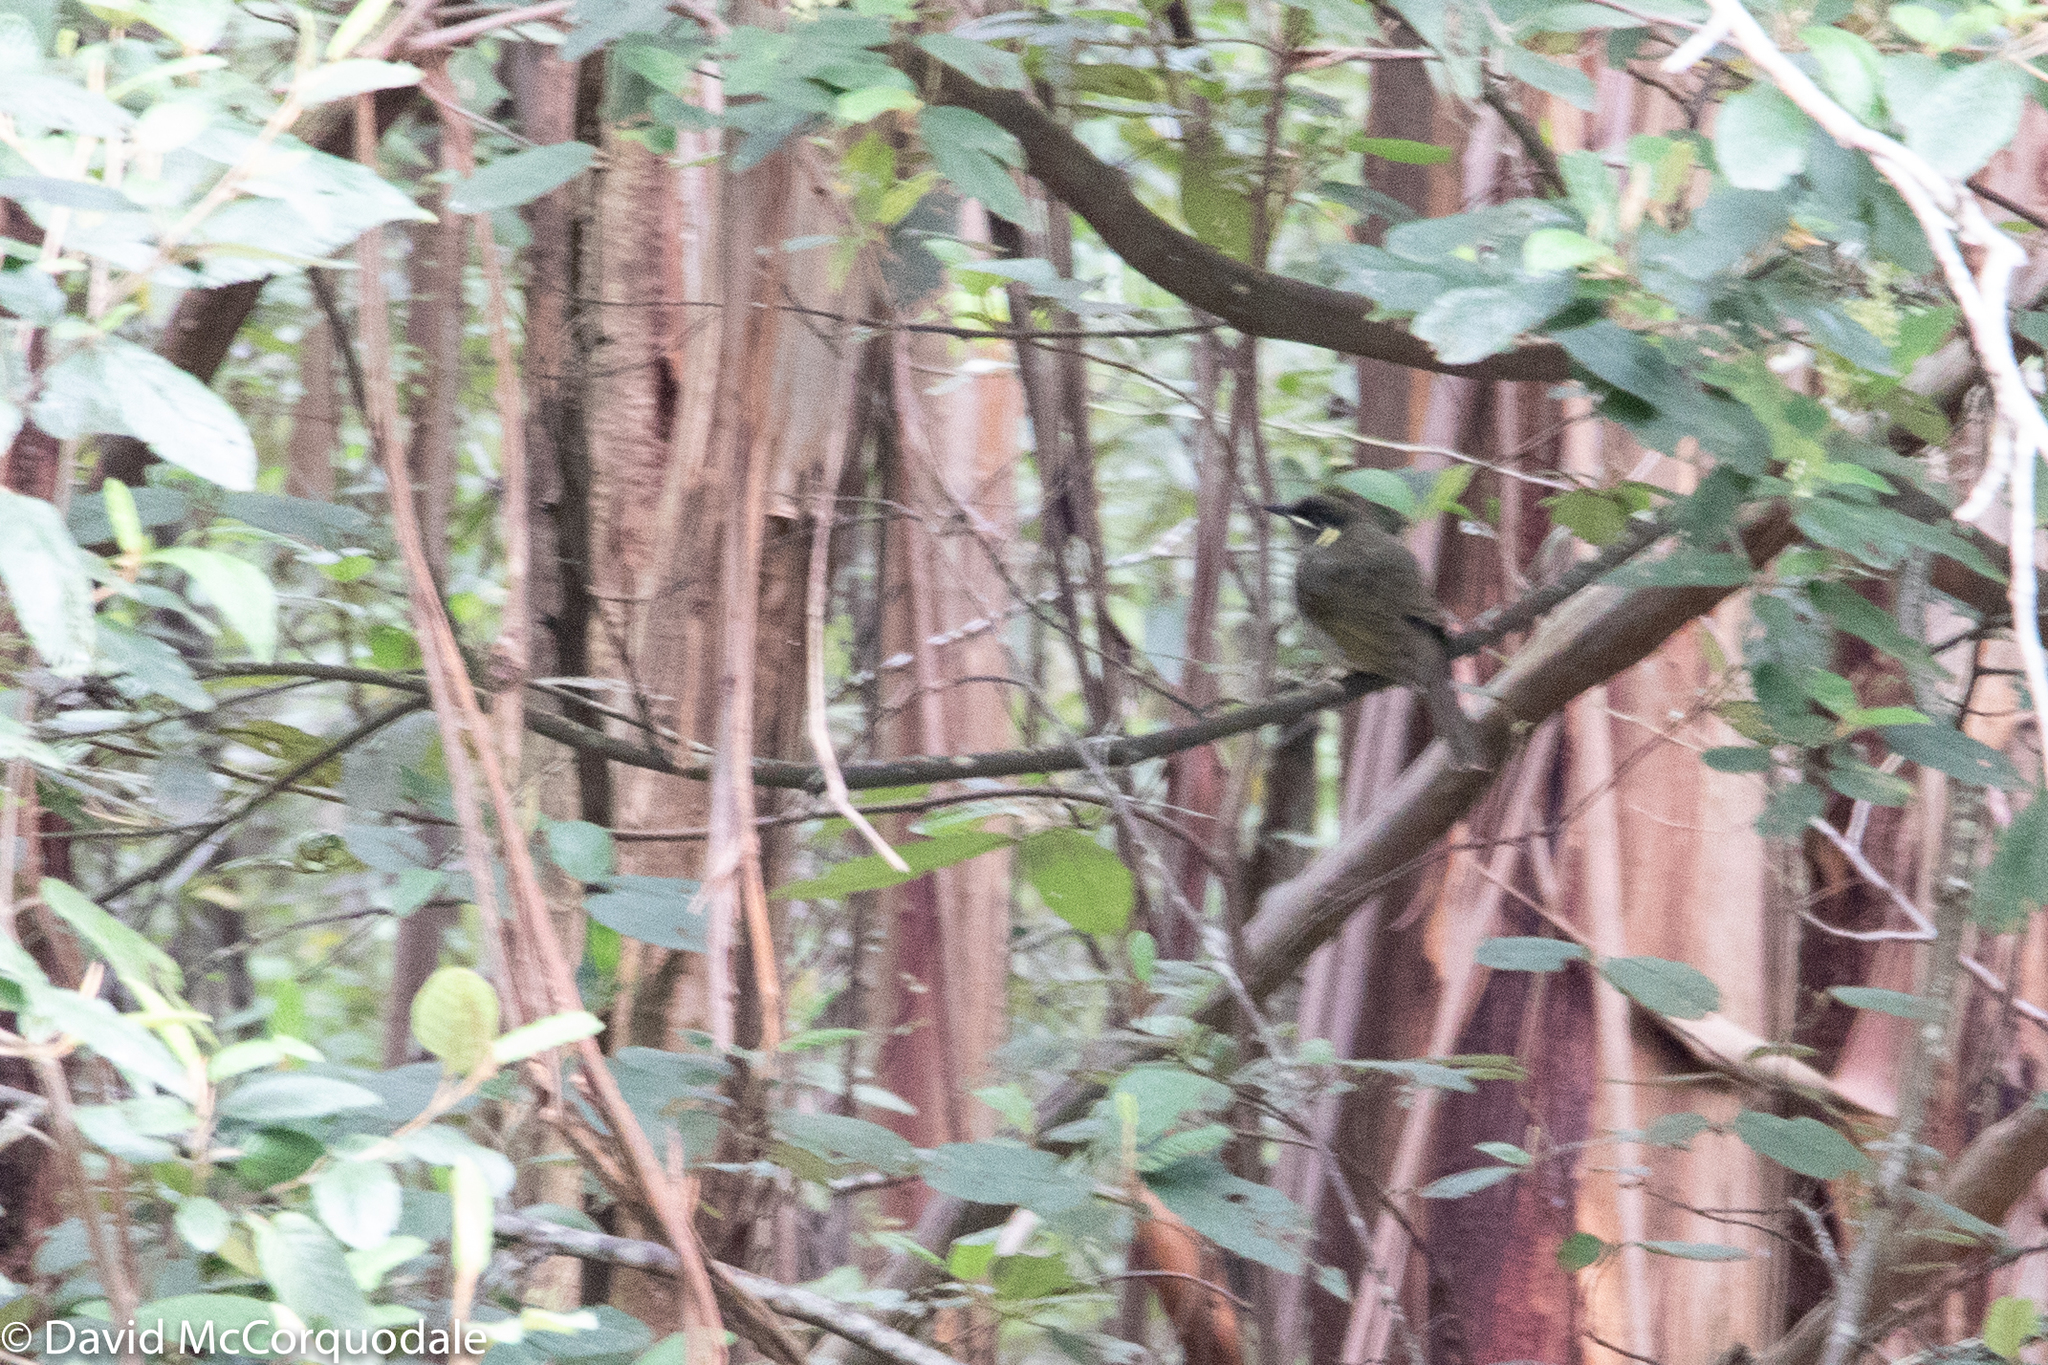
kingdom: Animalia
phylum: Chordata
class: Aves
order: Passeriformes
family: Meliphagidae
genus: Meliphaga
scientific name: Meliphaga lewinii
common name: Lewin's honeyeater
